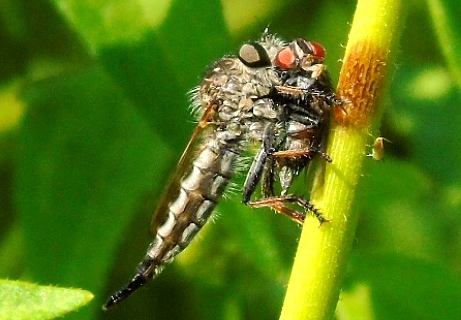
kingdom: Animalia
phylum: Arthropoda
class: Insecta
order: Diptera
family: Asilidae
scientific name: Asilidae
